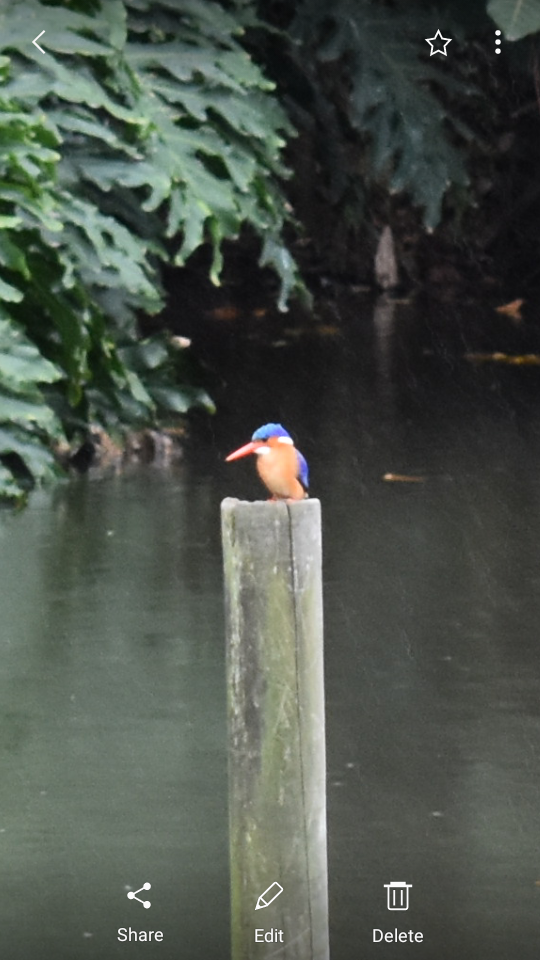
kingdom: Animalia
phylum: Chordata
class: Aves
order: Coraciiformes
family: Alcedinidae
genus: Corythornis
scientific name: Corythornis cristatus
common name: Malachite kingfisher
